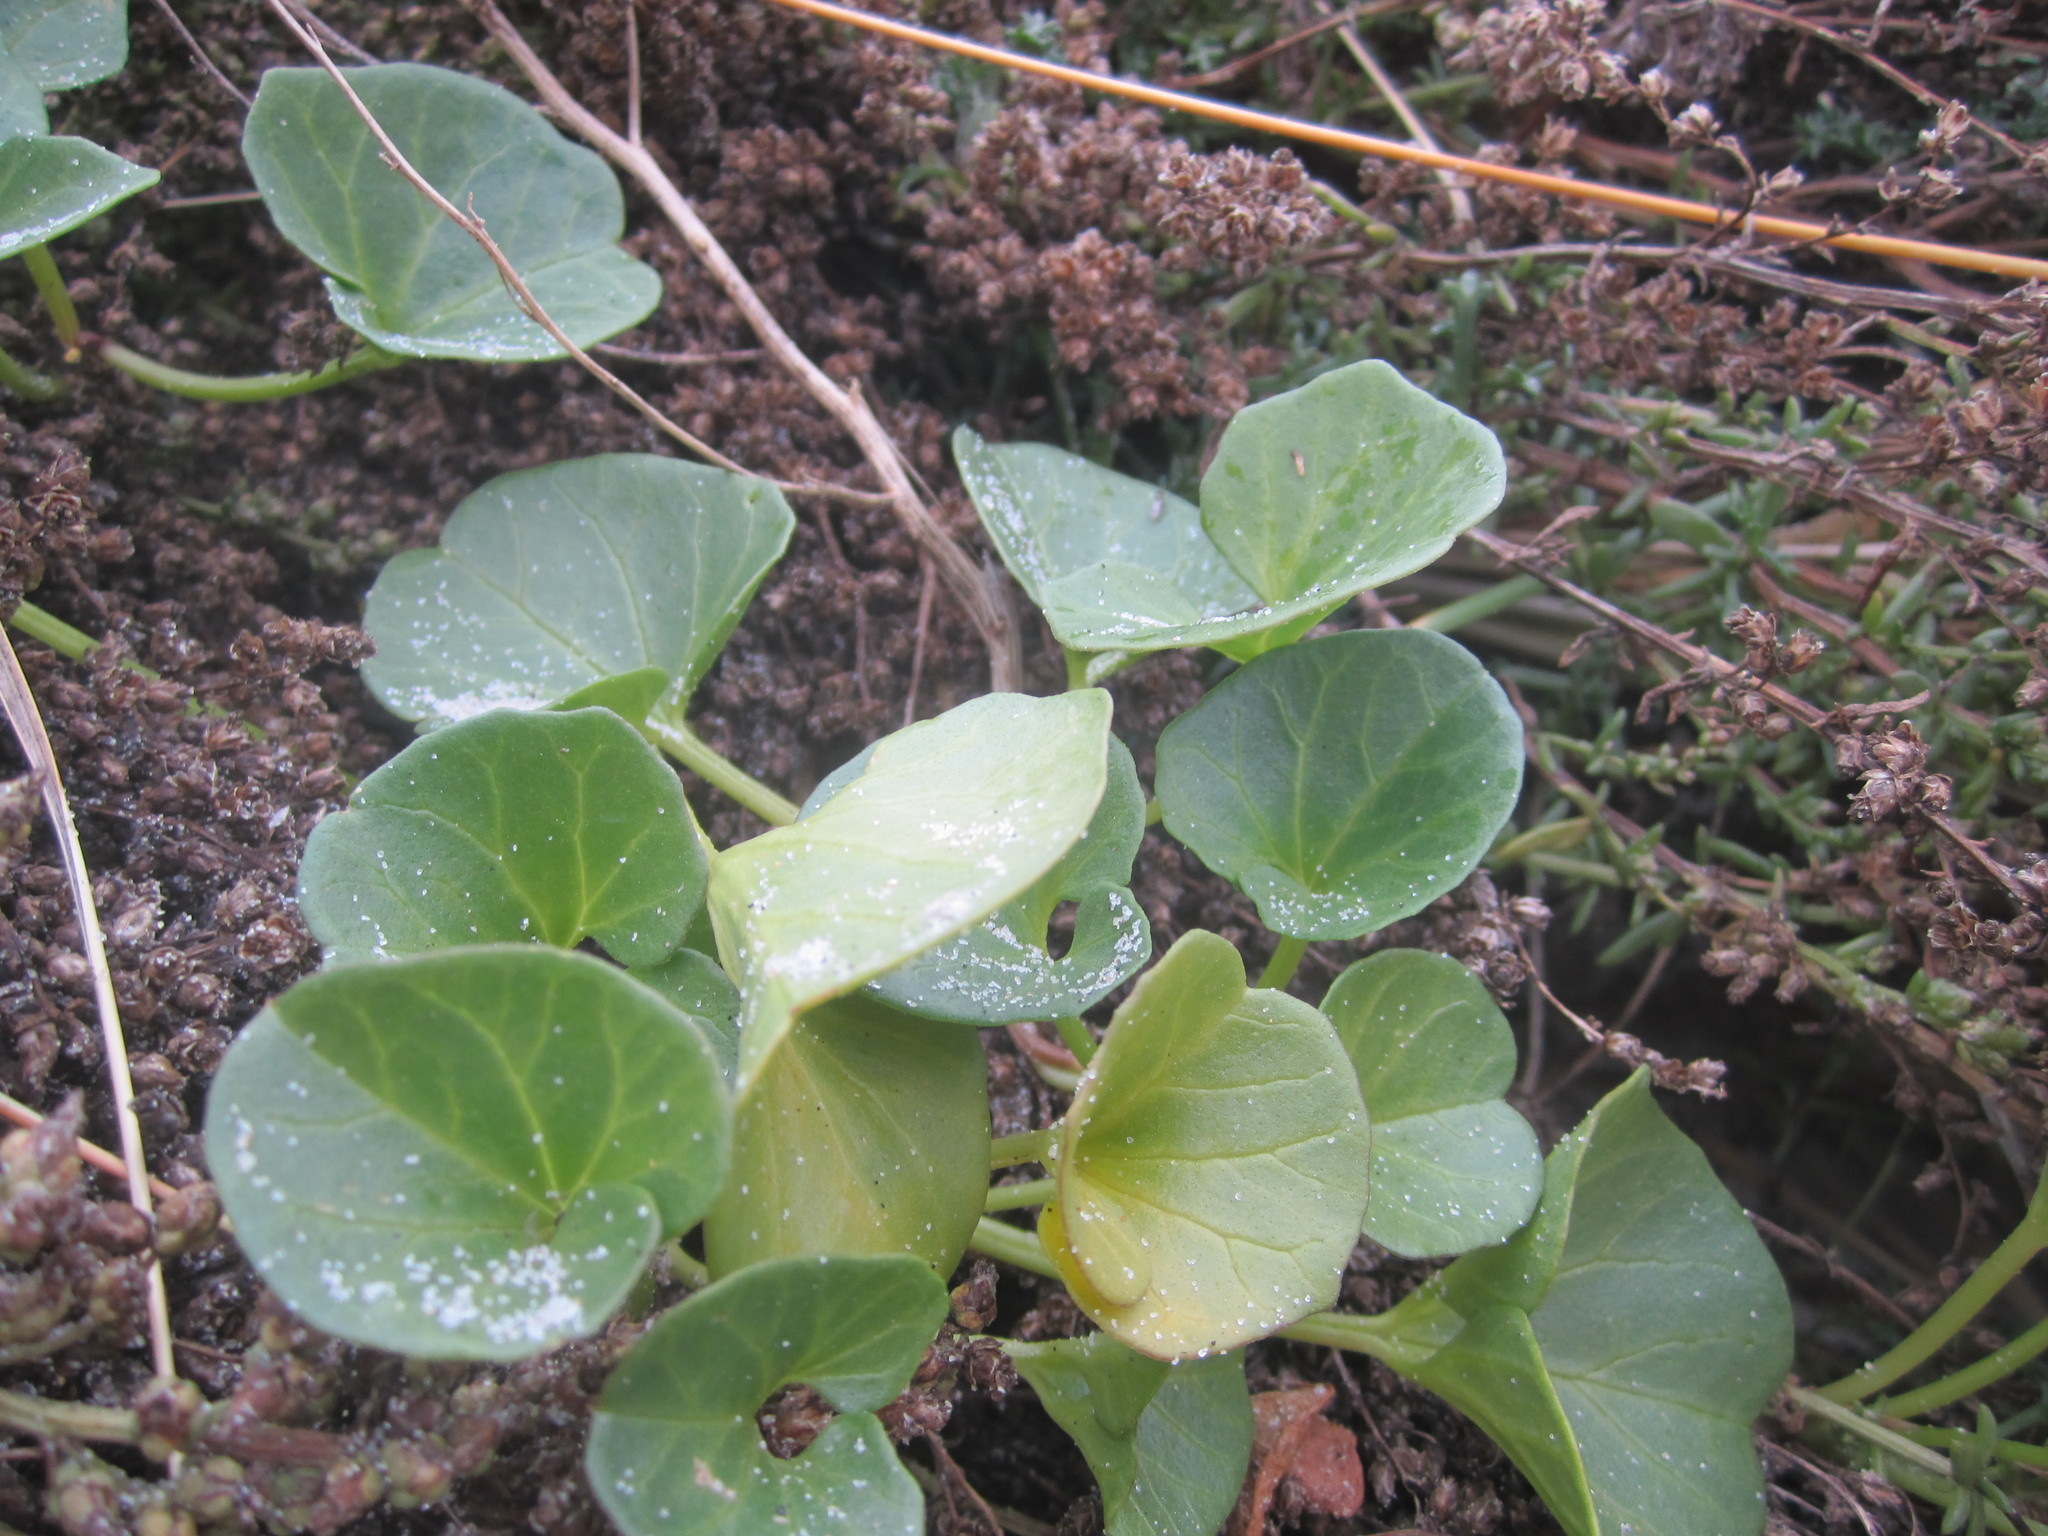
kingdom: Plantae
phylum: Tracheophyta
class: Magnoliopsida
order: Solanales
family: Convolvulaceae
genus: Calystegia
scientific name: Calystegia soldanella
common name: Sea bindweed
